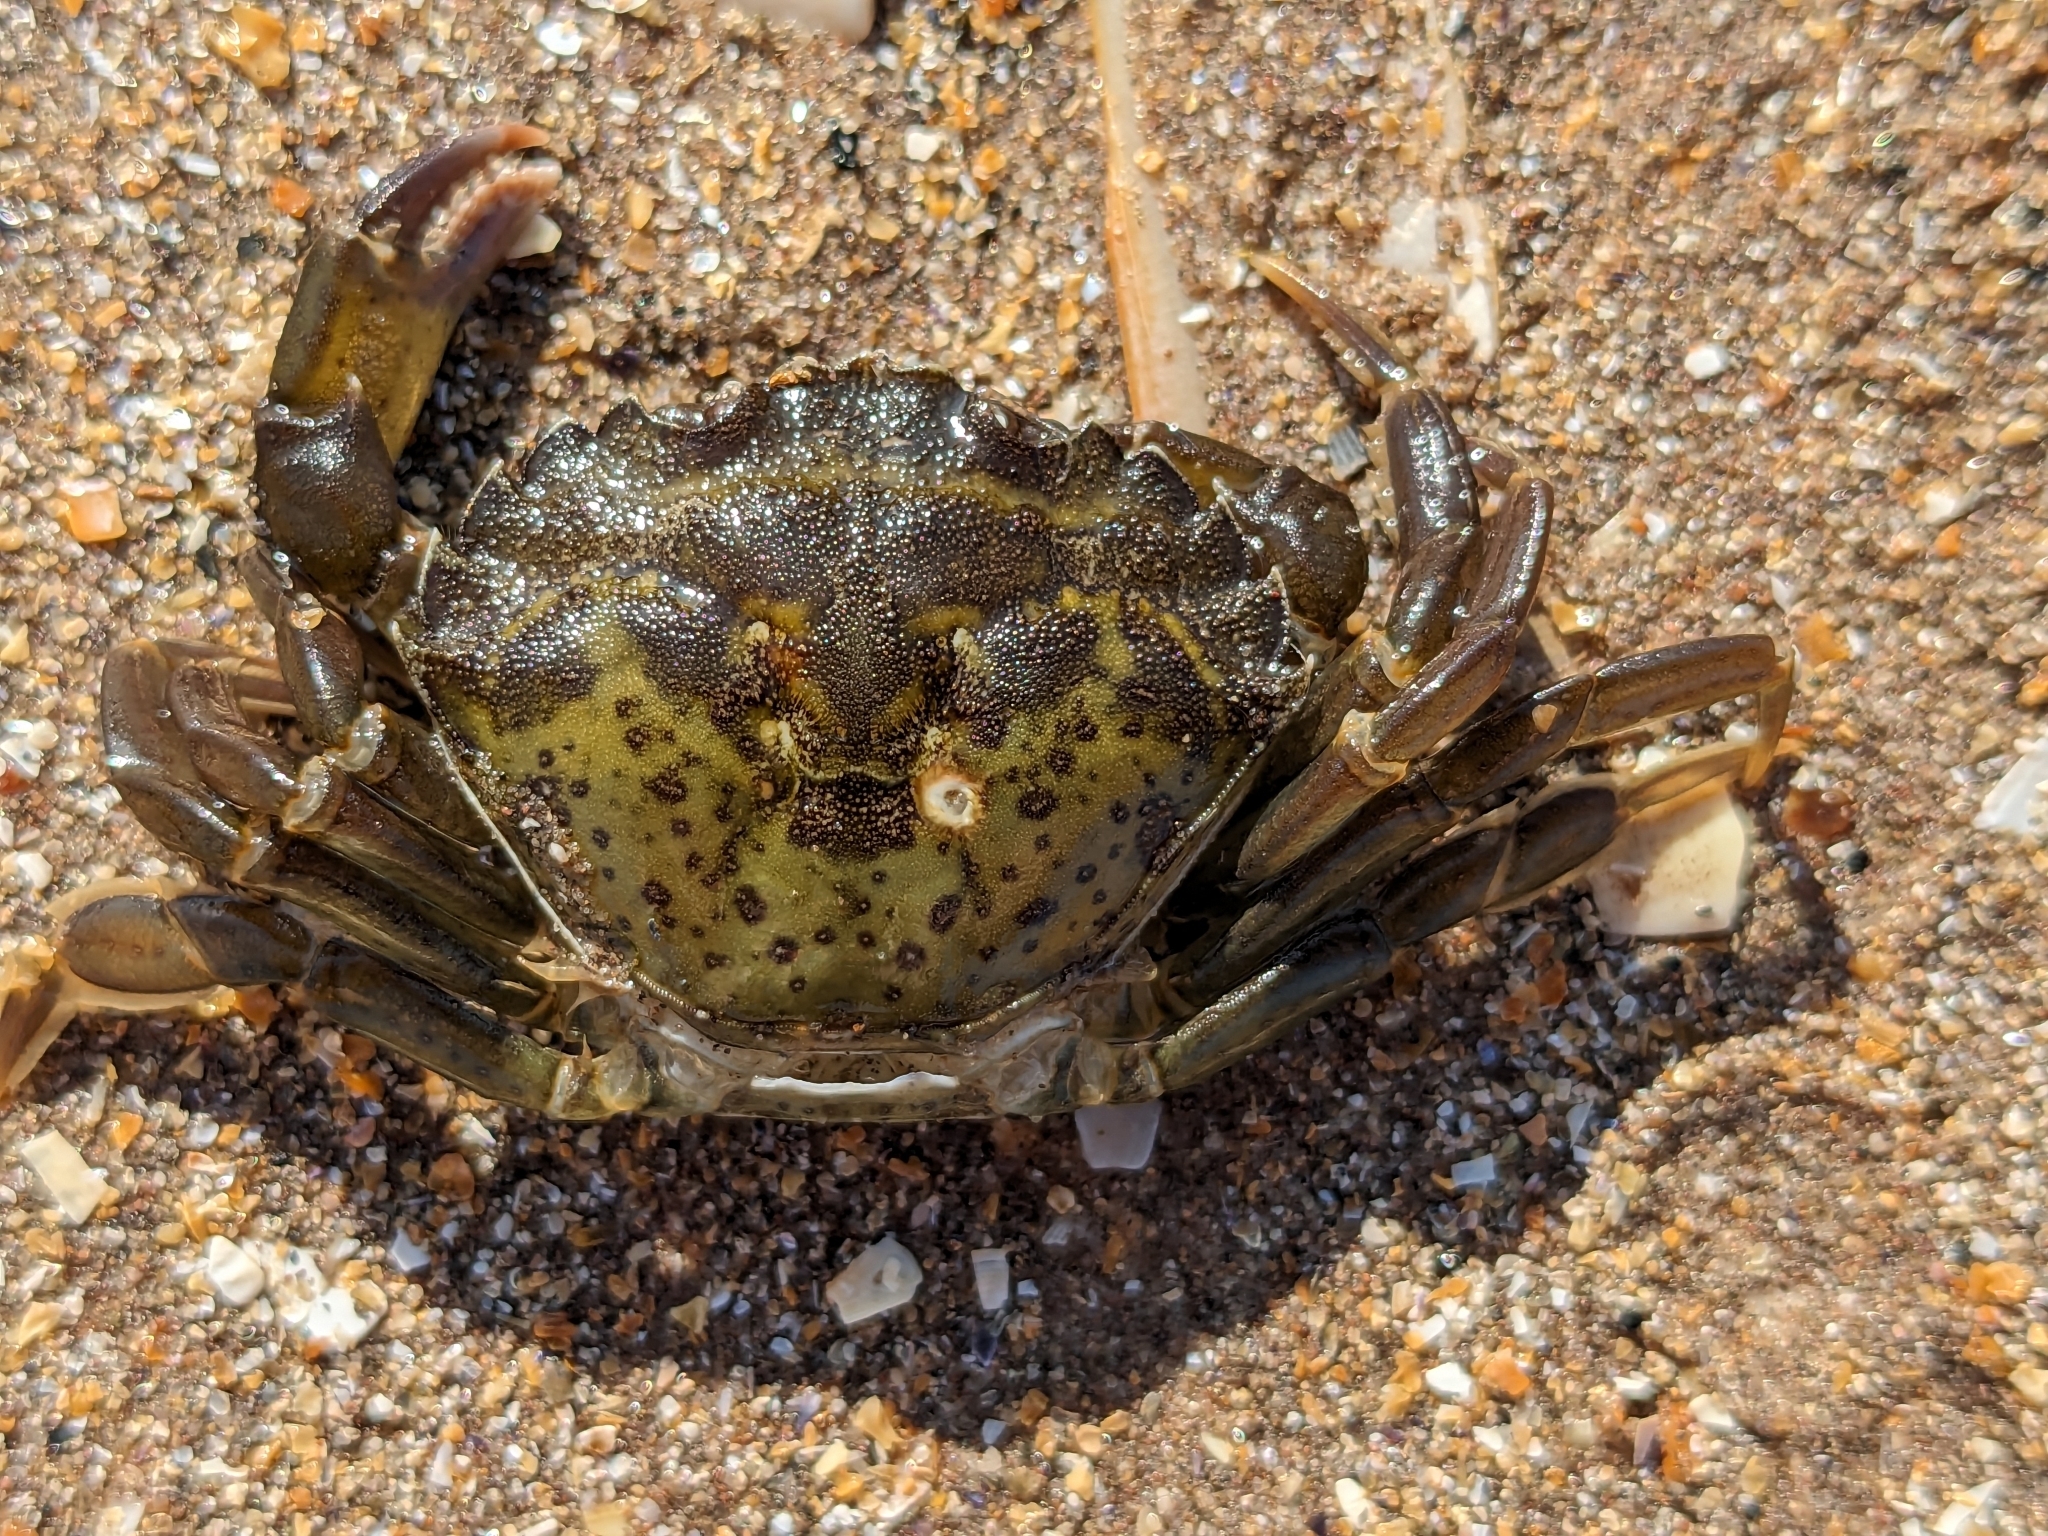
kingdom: Animalia
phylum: Arthropoda
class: Malacostraca
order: Decapoda
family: Carcinidae
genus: Carcinus
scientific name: Carcinus maenas
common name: European green crab
